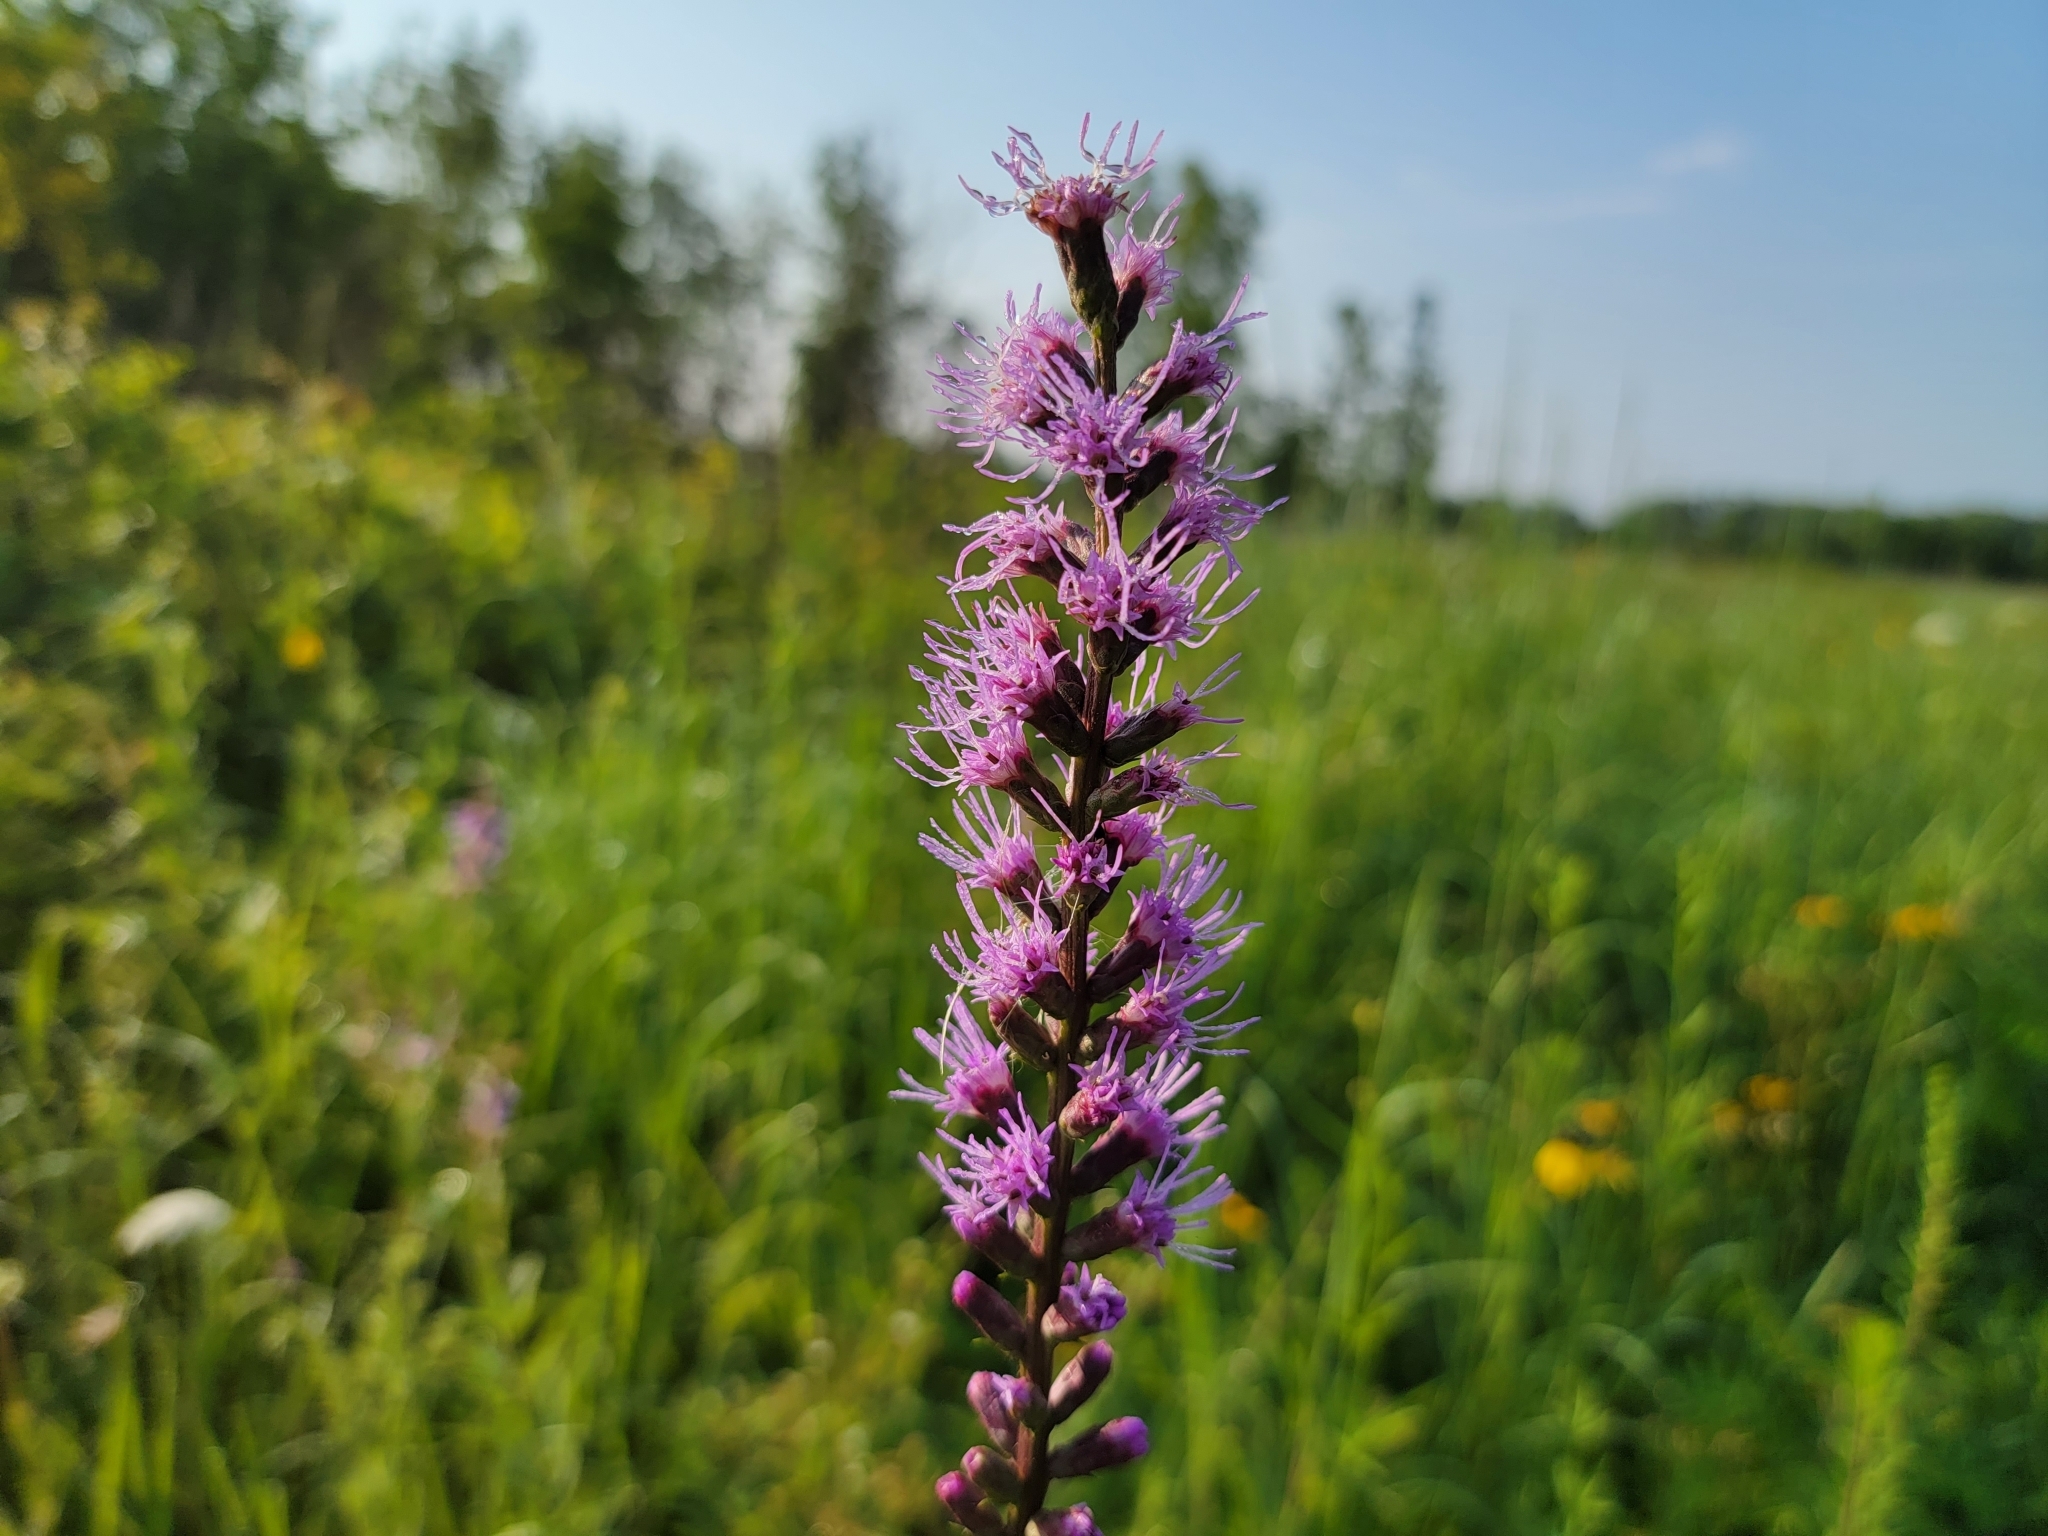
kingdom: Plantae
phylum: Tracheophyta
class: Magnoliopsida
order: Asterales
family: Asteraceae
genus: Liatris
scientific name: Liatris spicata
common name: Florist gayfeather
